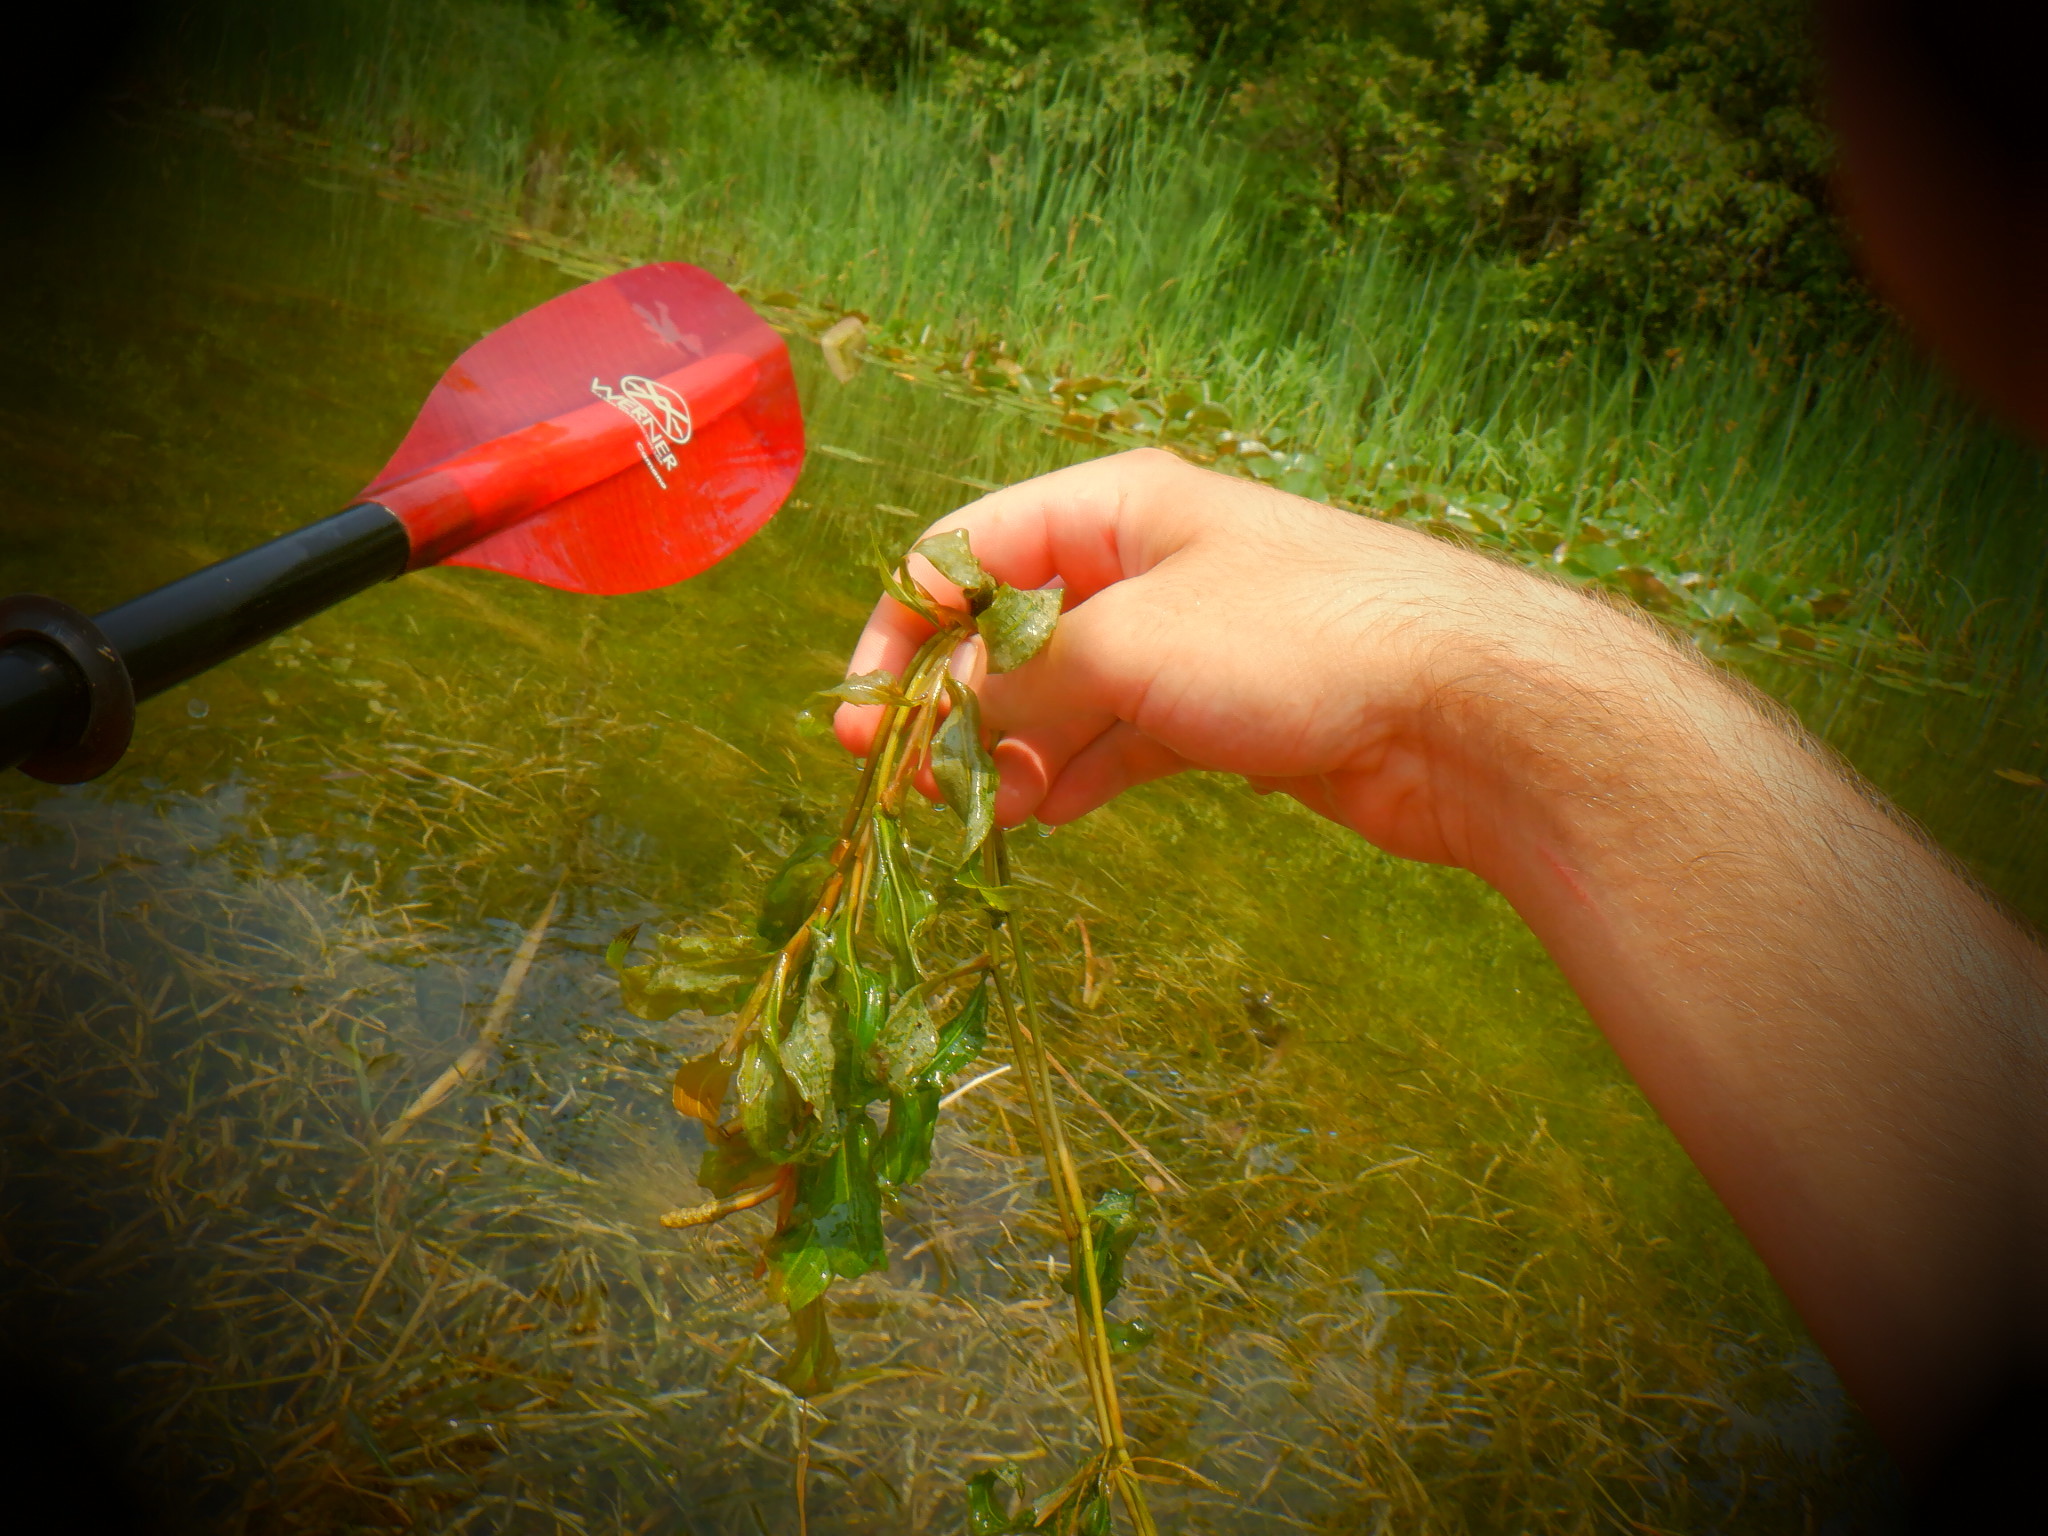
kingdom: Plantae
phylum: Tracheophyta
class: Liliopsida
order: Alismatales
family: Potamogetonaceae
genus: Potamogeton
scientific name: Potamogeton amplifolius
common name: Broad-leaved pondweed
